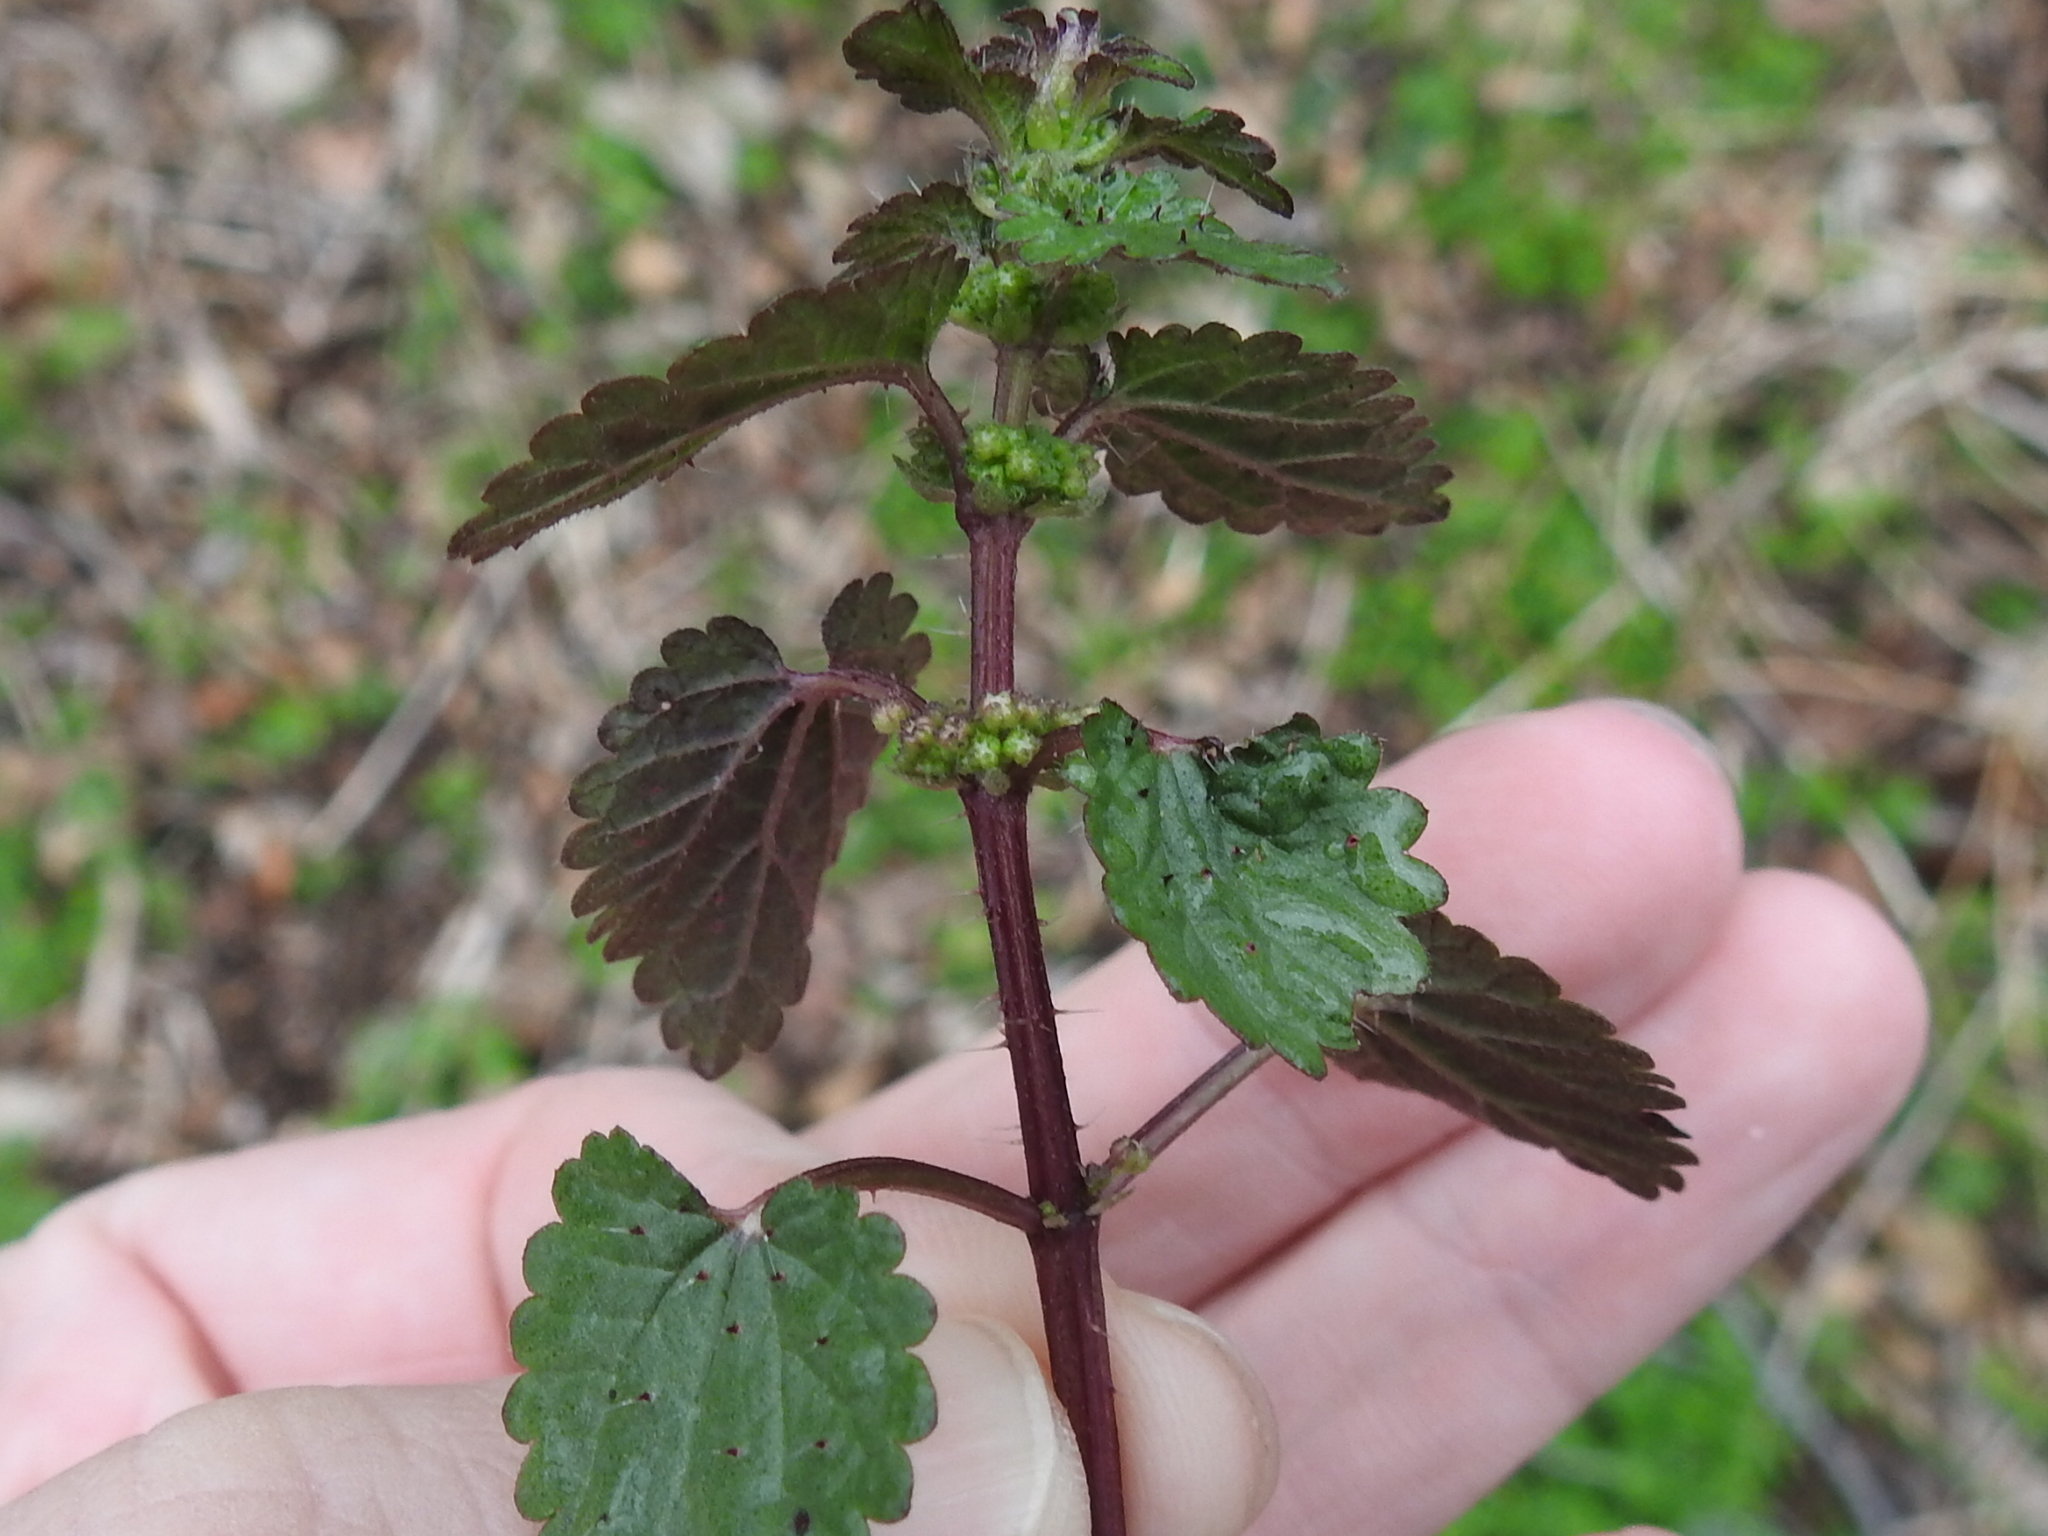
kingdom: Plantae
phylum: Tracheophyta
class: Magnoliopsida
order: Rosales
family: Urticaceae
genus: Urtica
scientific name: Urtica chamaedryoides
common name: Heart-leaf nettle
